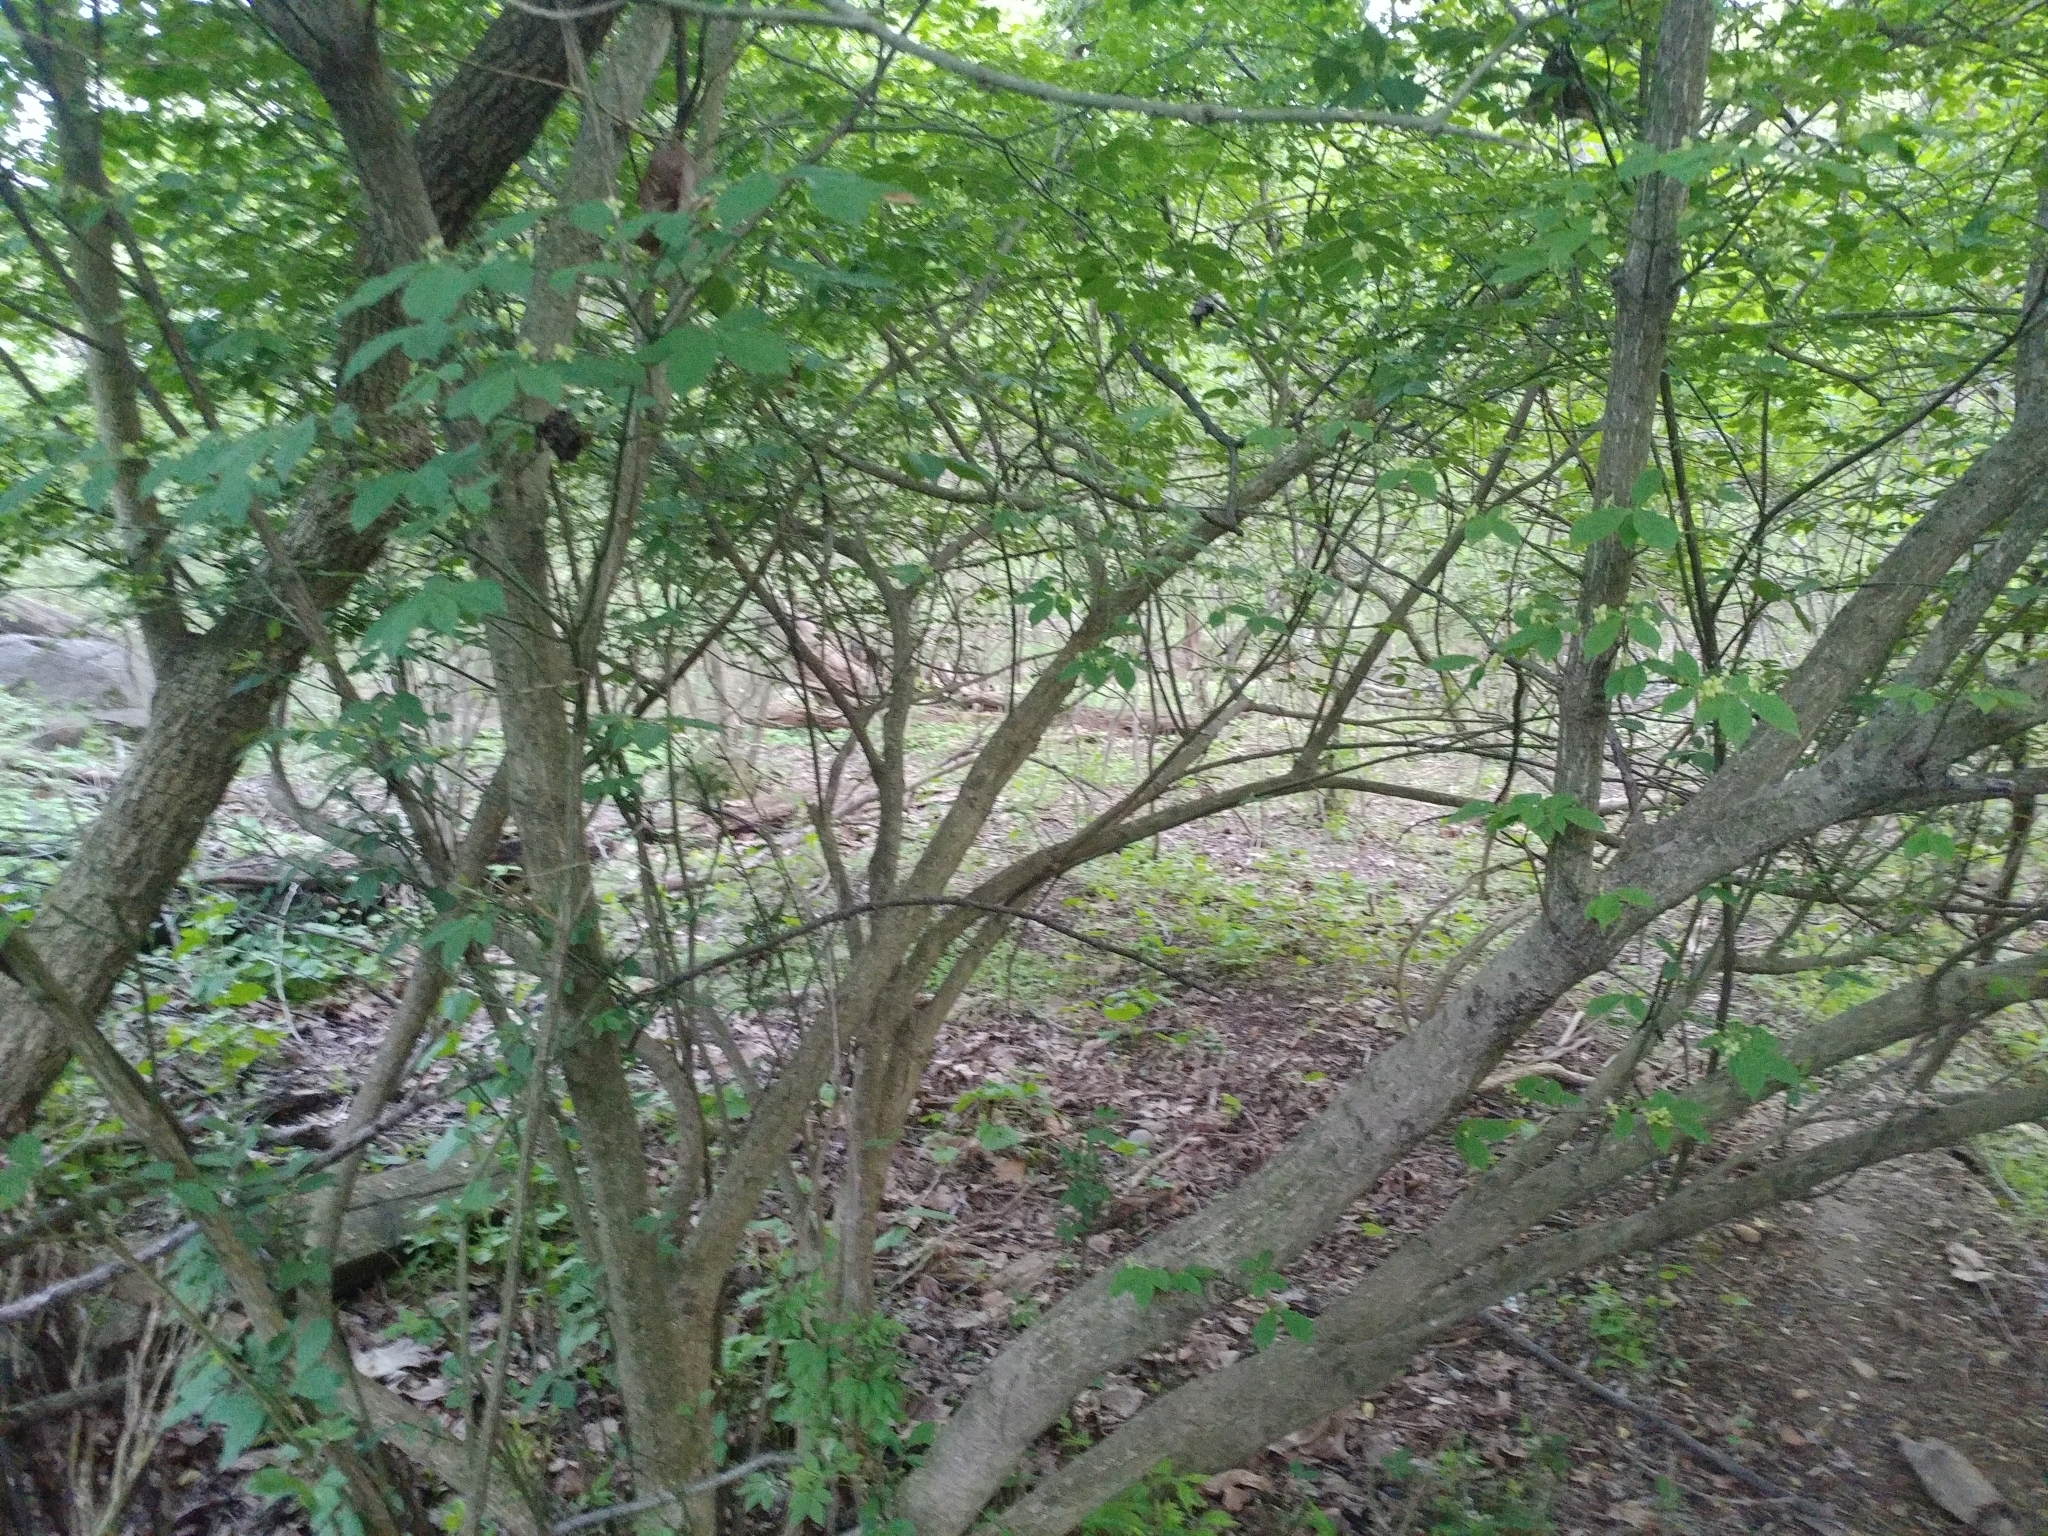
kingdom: Plantae
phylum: Tracheophyta
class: Magnoliopsida
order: Celastrales
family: Celastraceae
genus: Euonymus
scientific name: Euonymus alatus
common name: Winged euonymus
